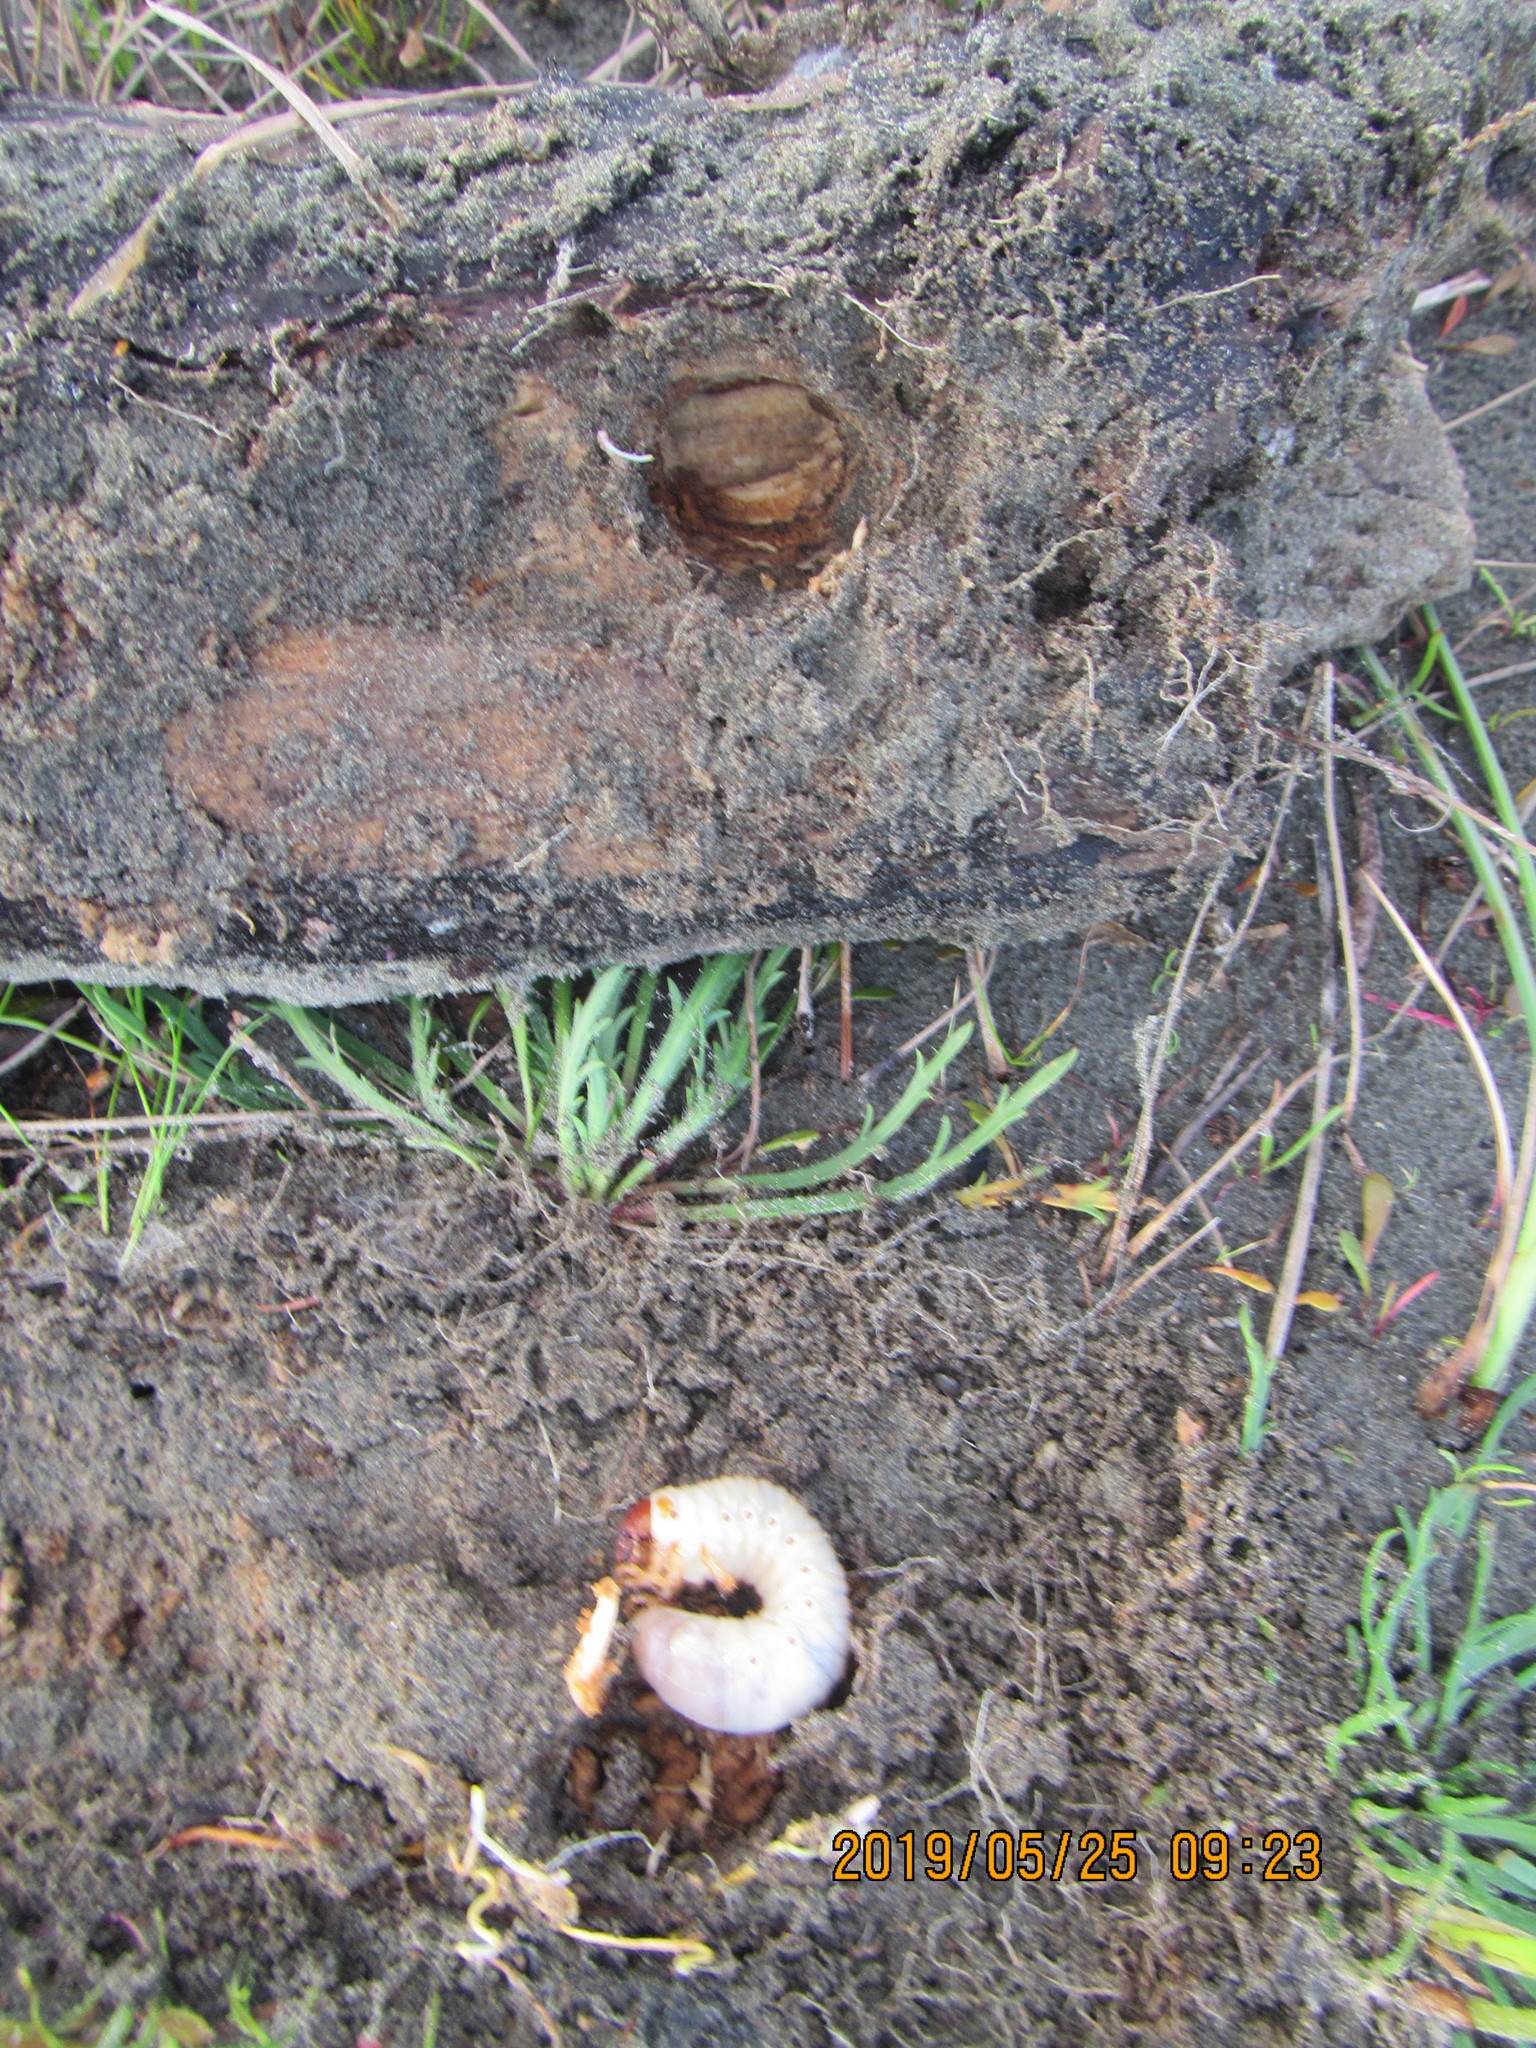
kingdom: Animalia
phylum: Arthropoda
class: Insecta
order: Coleoptera
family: Scarabaeidae
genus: Pericoptus
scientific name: Pericoptus truncatus
